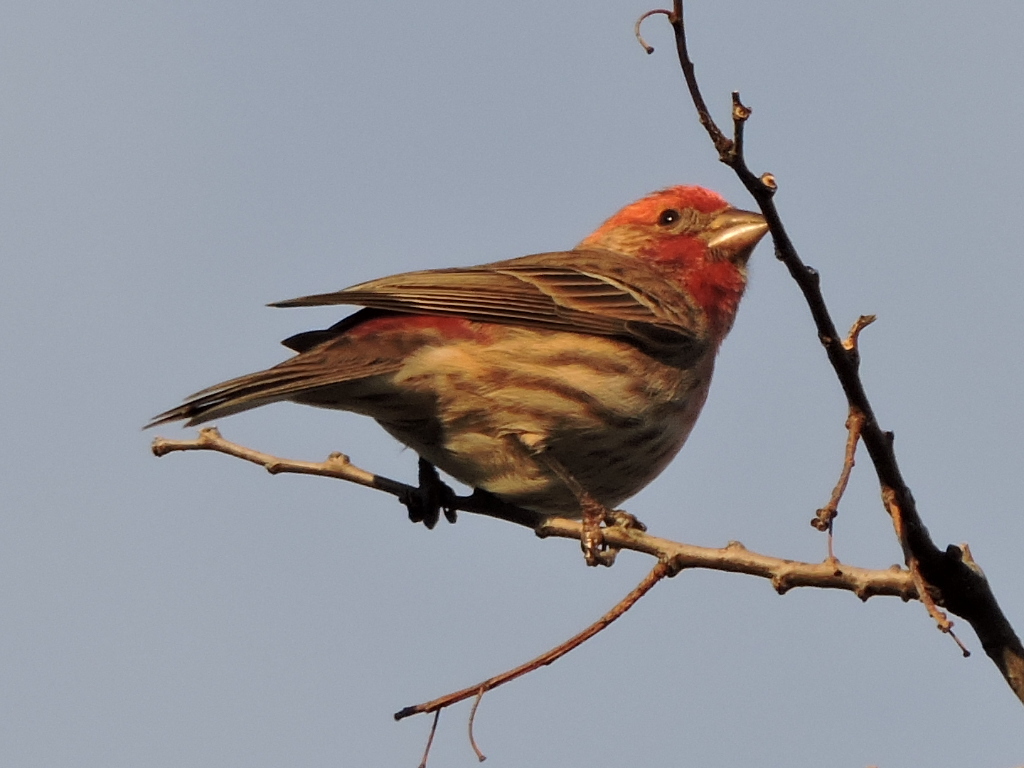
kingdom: Animalia
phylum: Chordata
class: Aves
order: Passeriformes
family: Fringillidae
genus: Haemorhous
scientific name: Haemorhous mexicanus
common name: House finch
